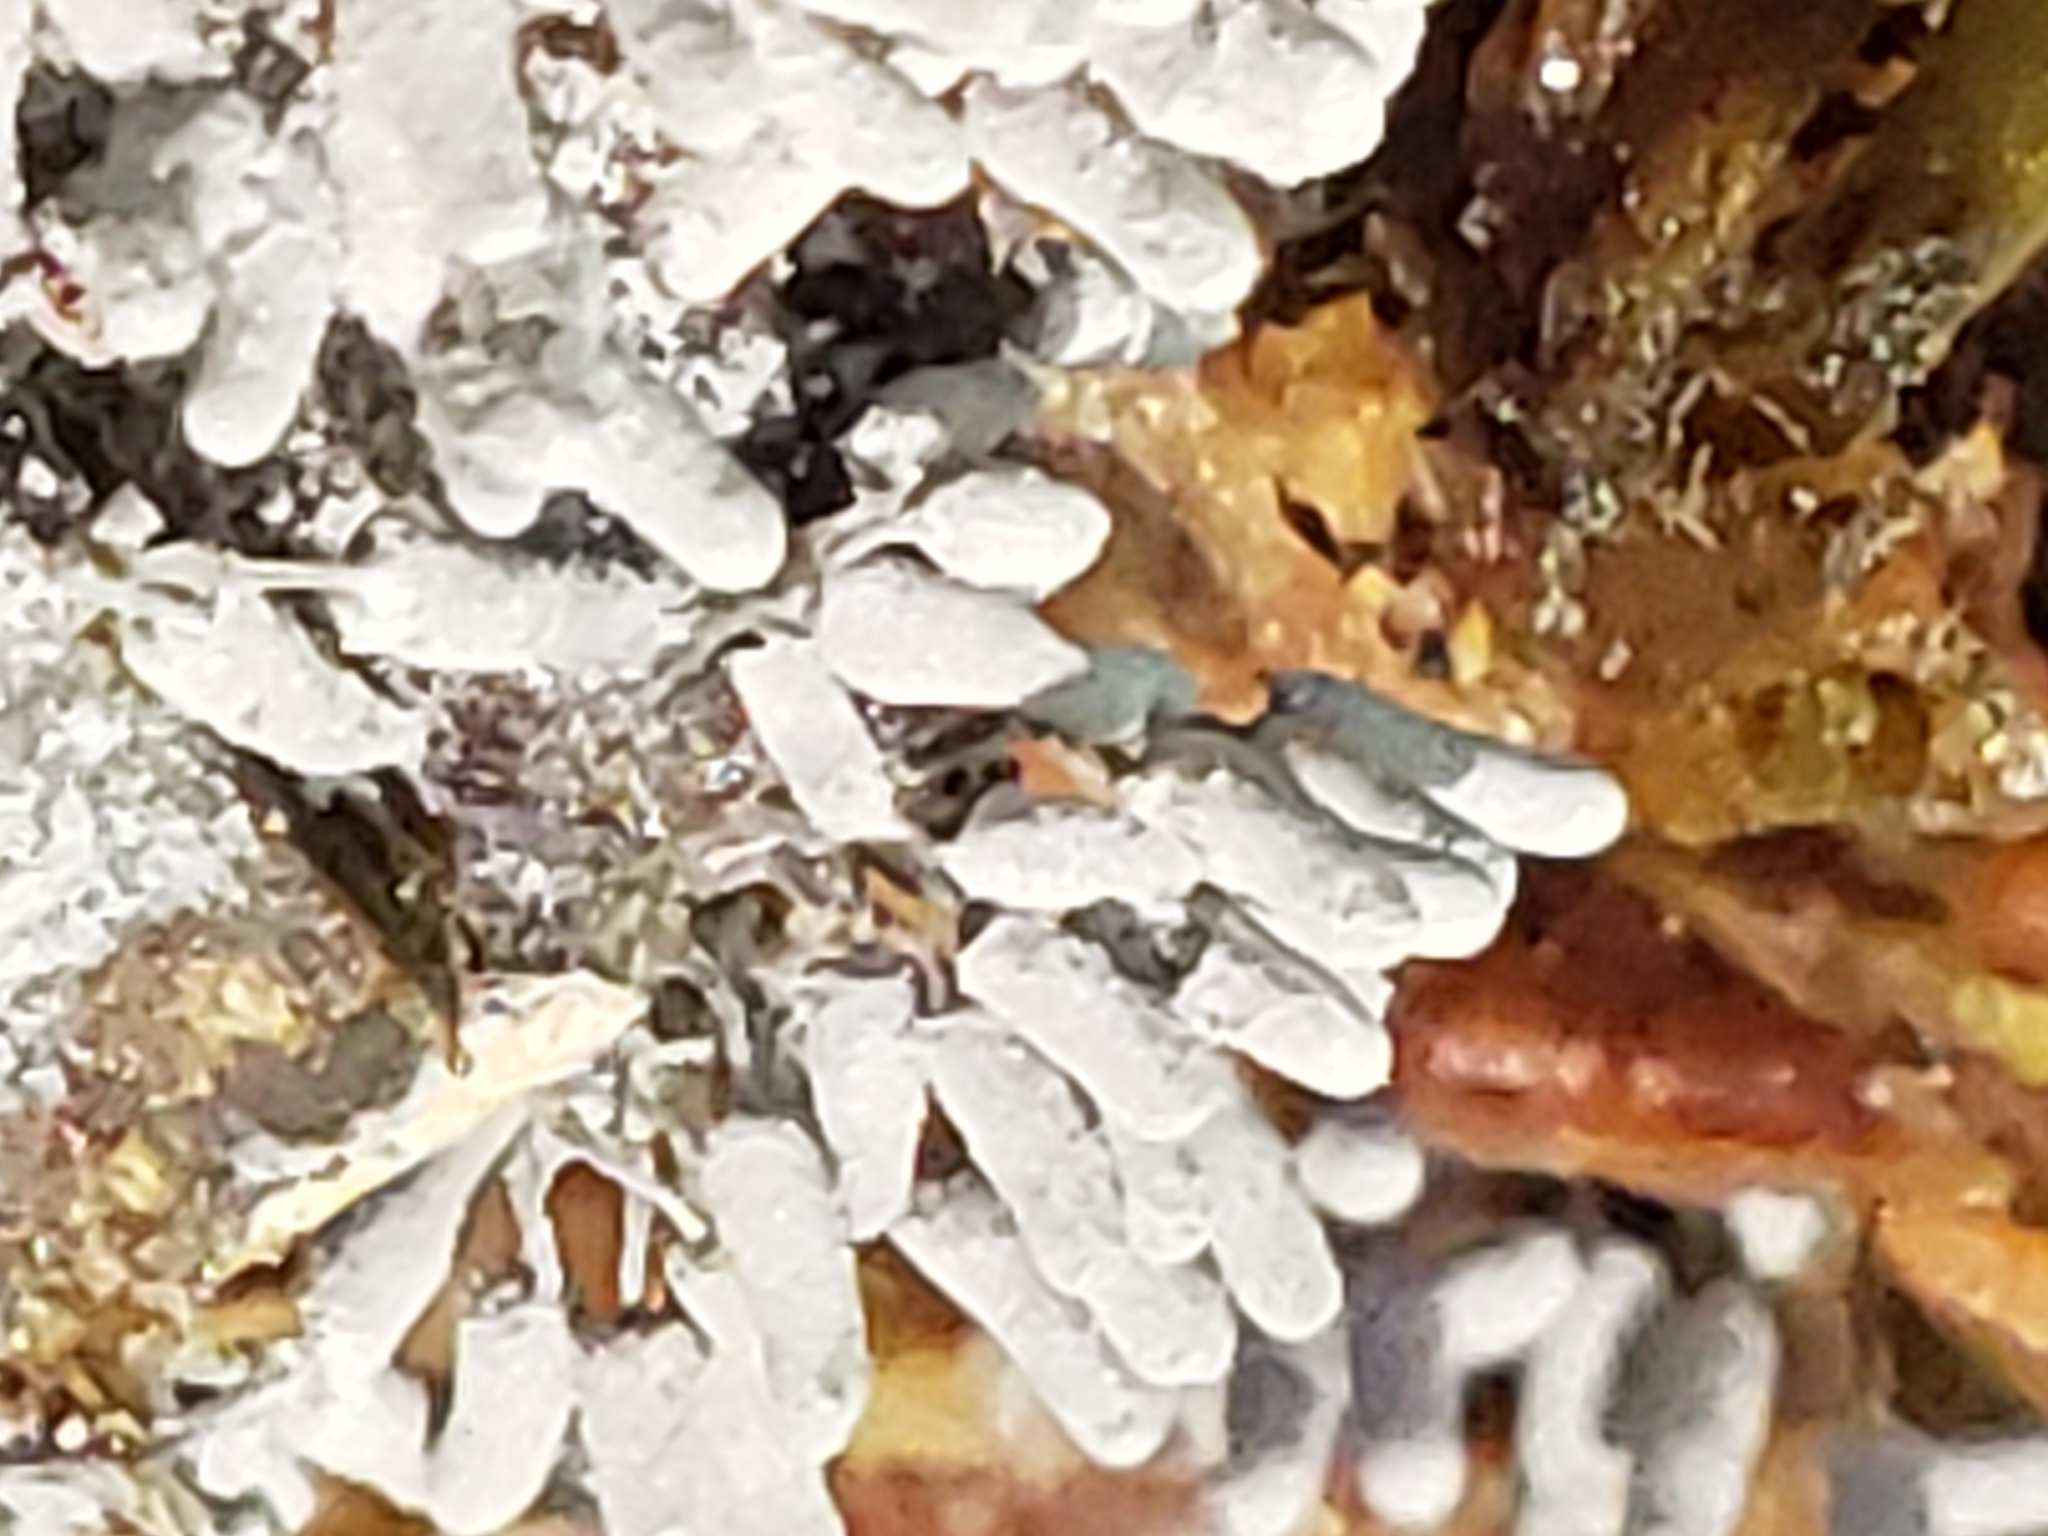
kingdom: Protozoa
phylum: Mycetozoa
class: Myxomycetes
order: Trichiales
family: Arcyriaceae
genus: Arcyria
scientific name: Arcyria cinerea
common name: White carnival candy slime mold
